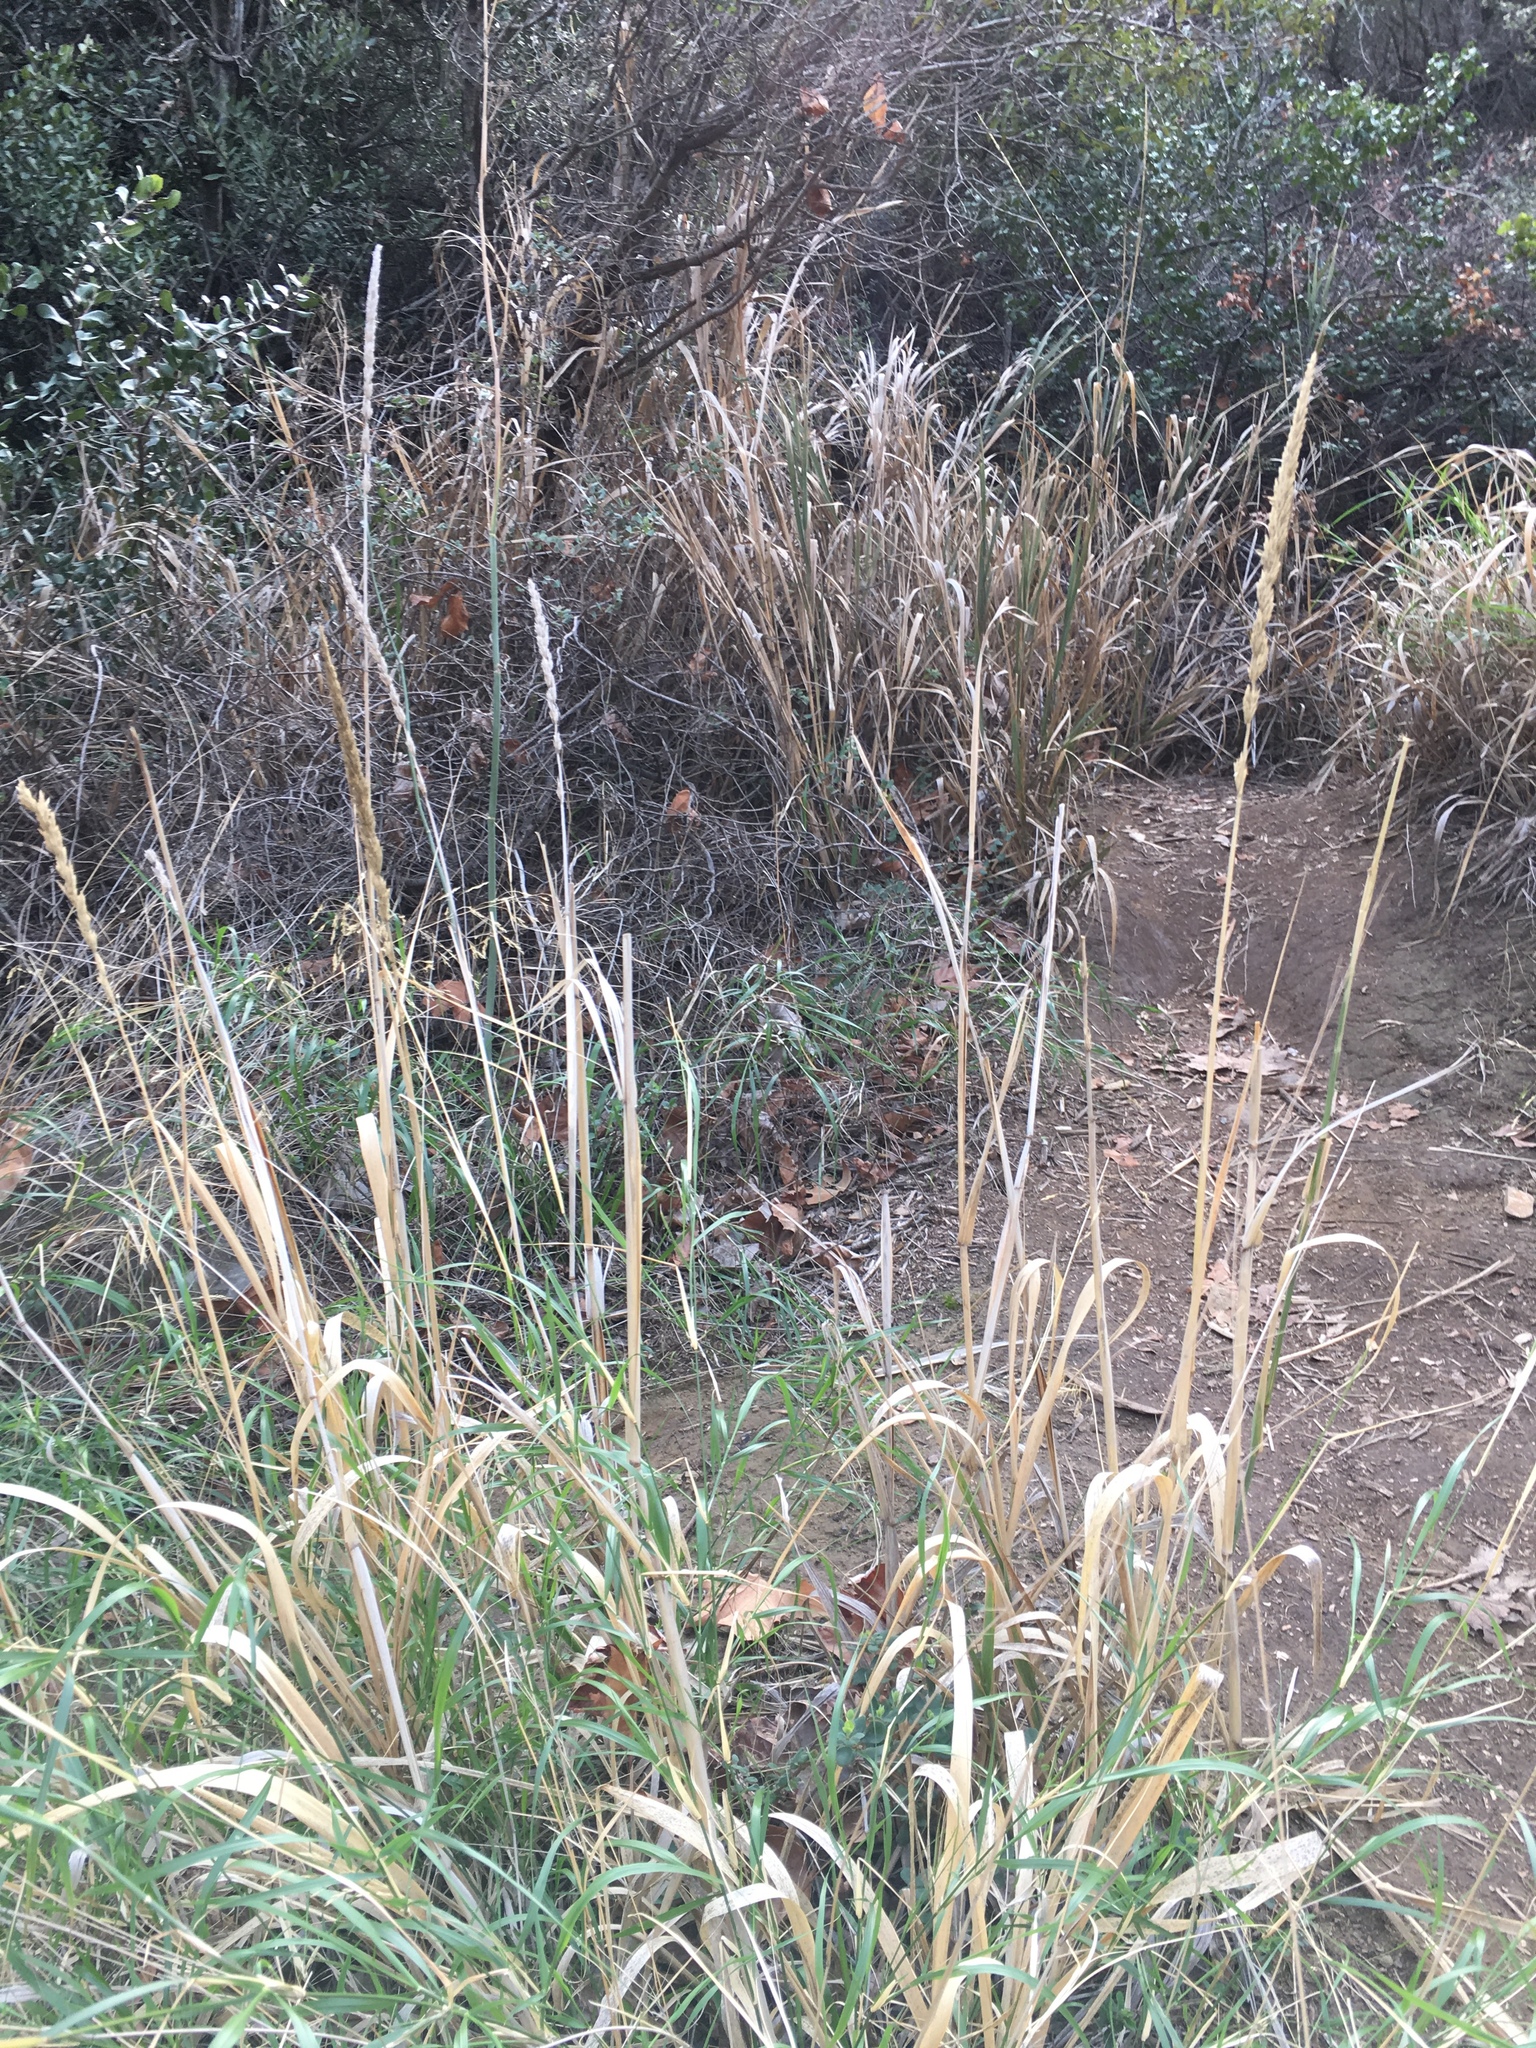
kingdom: Plantae
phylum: Tracheophyta
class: Liliopsida
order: Poales
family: Poaceae
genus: Leymus
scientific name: Leymus condensatus
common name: Giant wild rye
